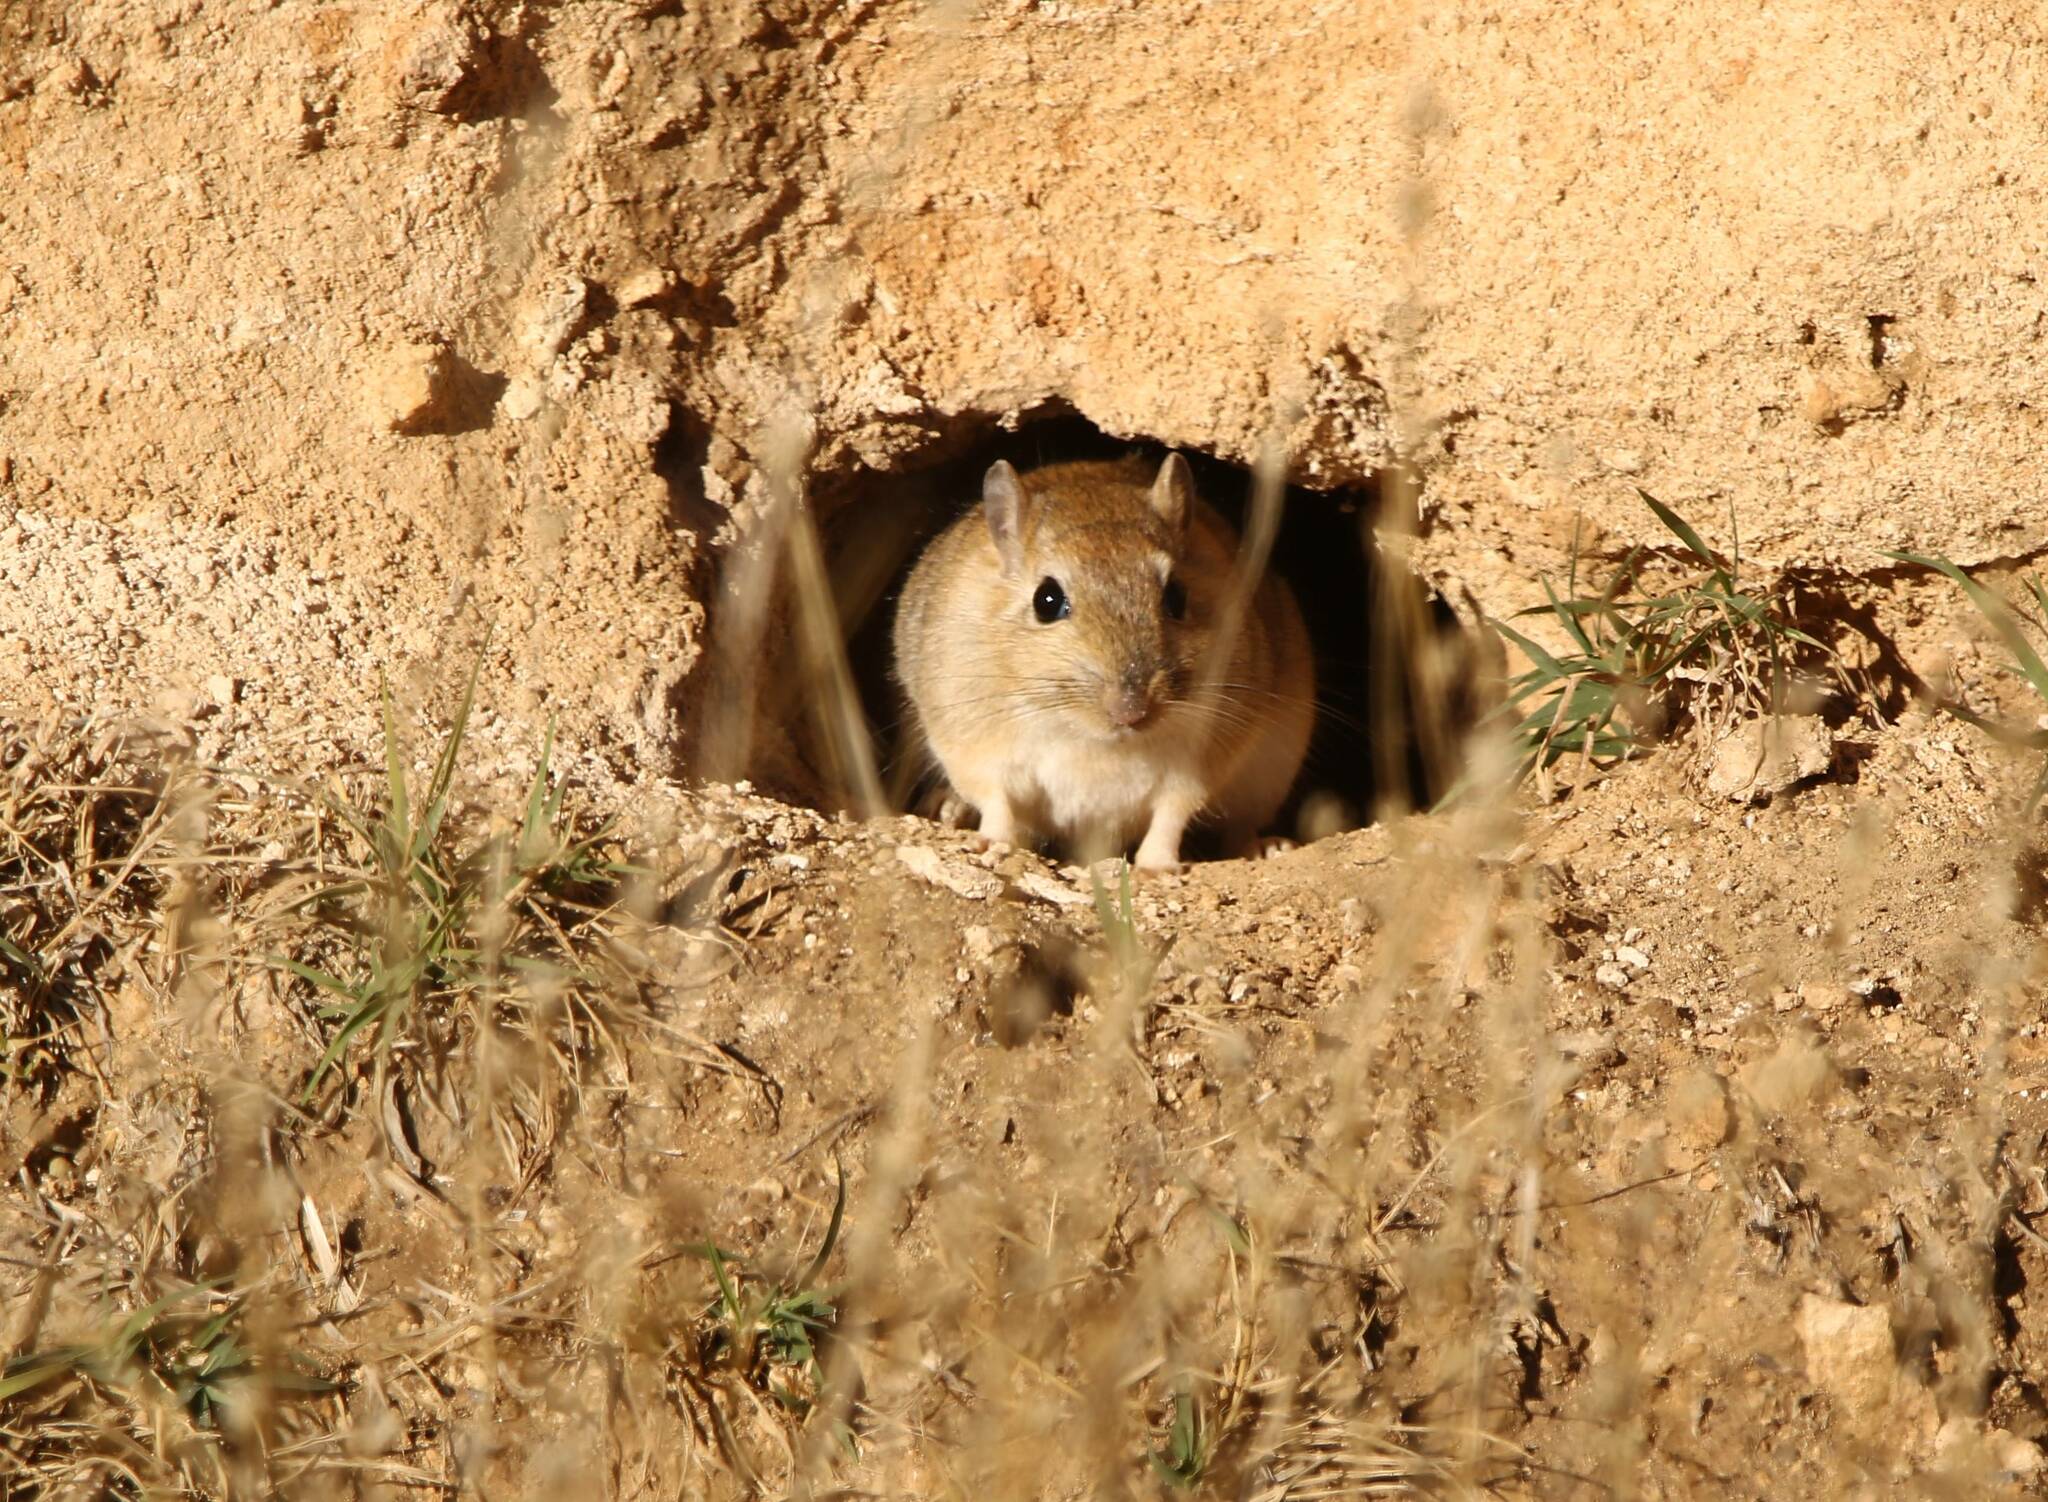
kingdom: Animalia
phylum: Chordata
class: Mammalia
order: Rodentia
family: Muridae
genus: Meriones
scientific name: Meriones shawi
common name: Shaw's jird
